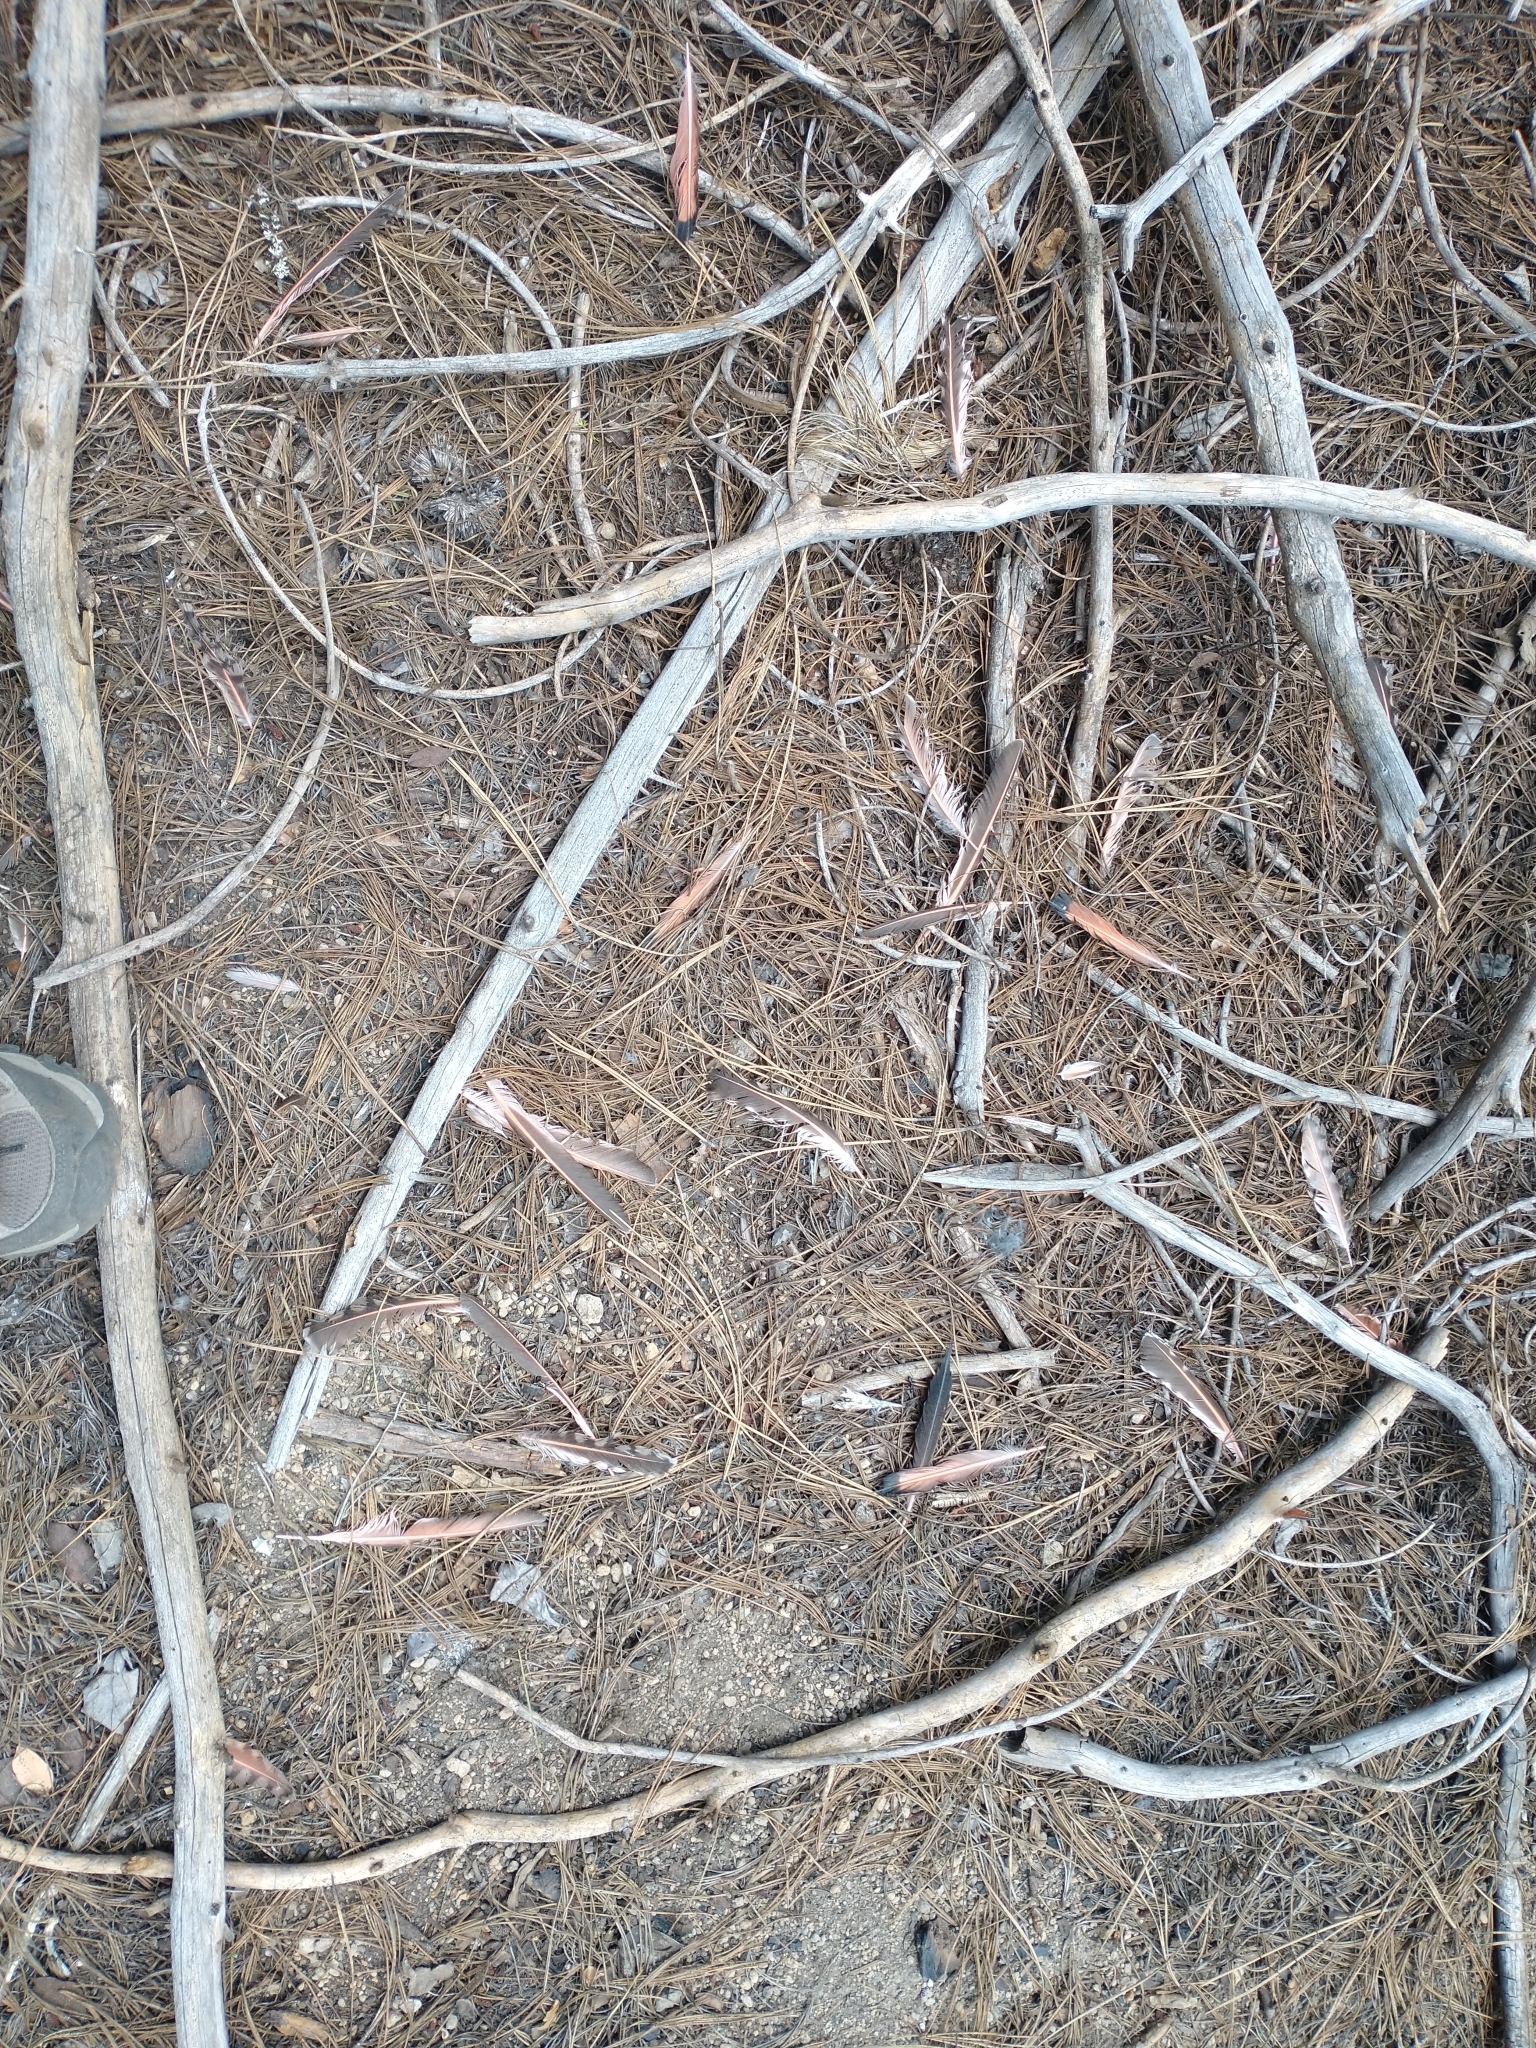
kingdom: Animalia
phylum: Chordata
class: Aves
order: Piciformes
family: Picidae
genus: Colaptes
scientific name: Colaptes auratus
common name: Northern flicker
